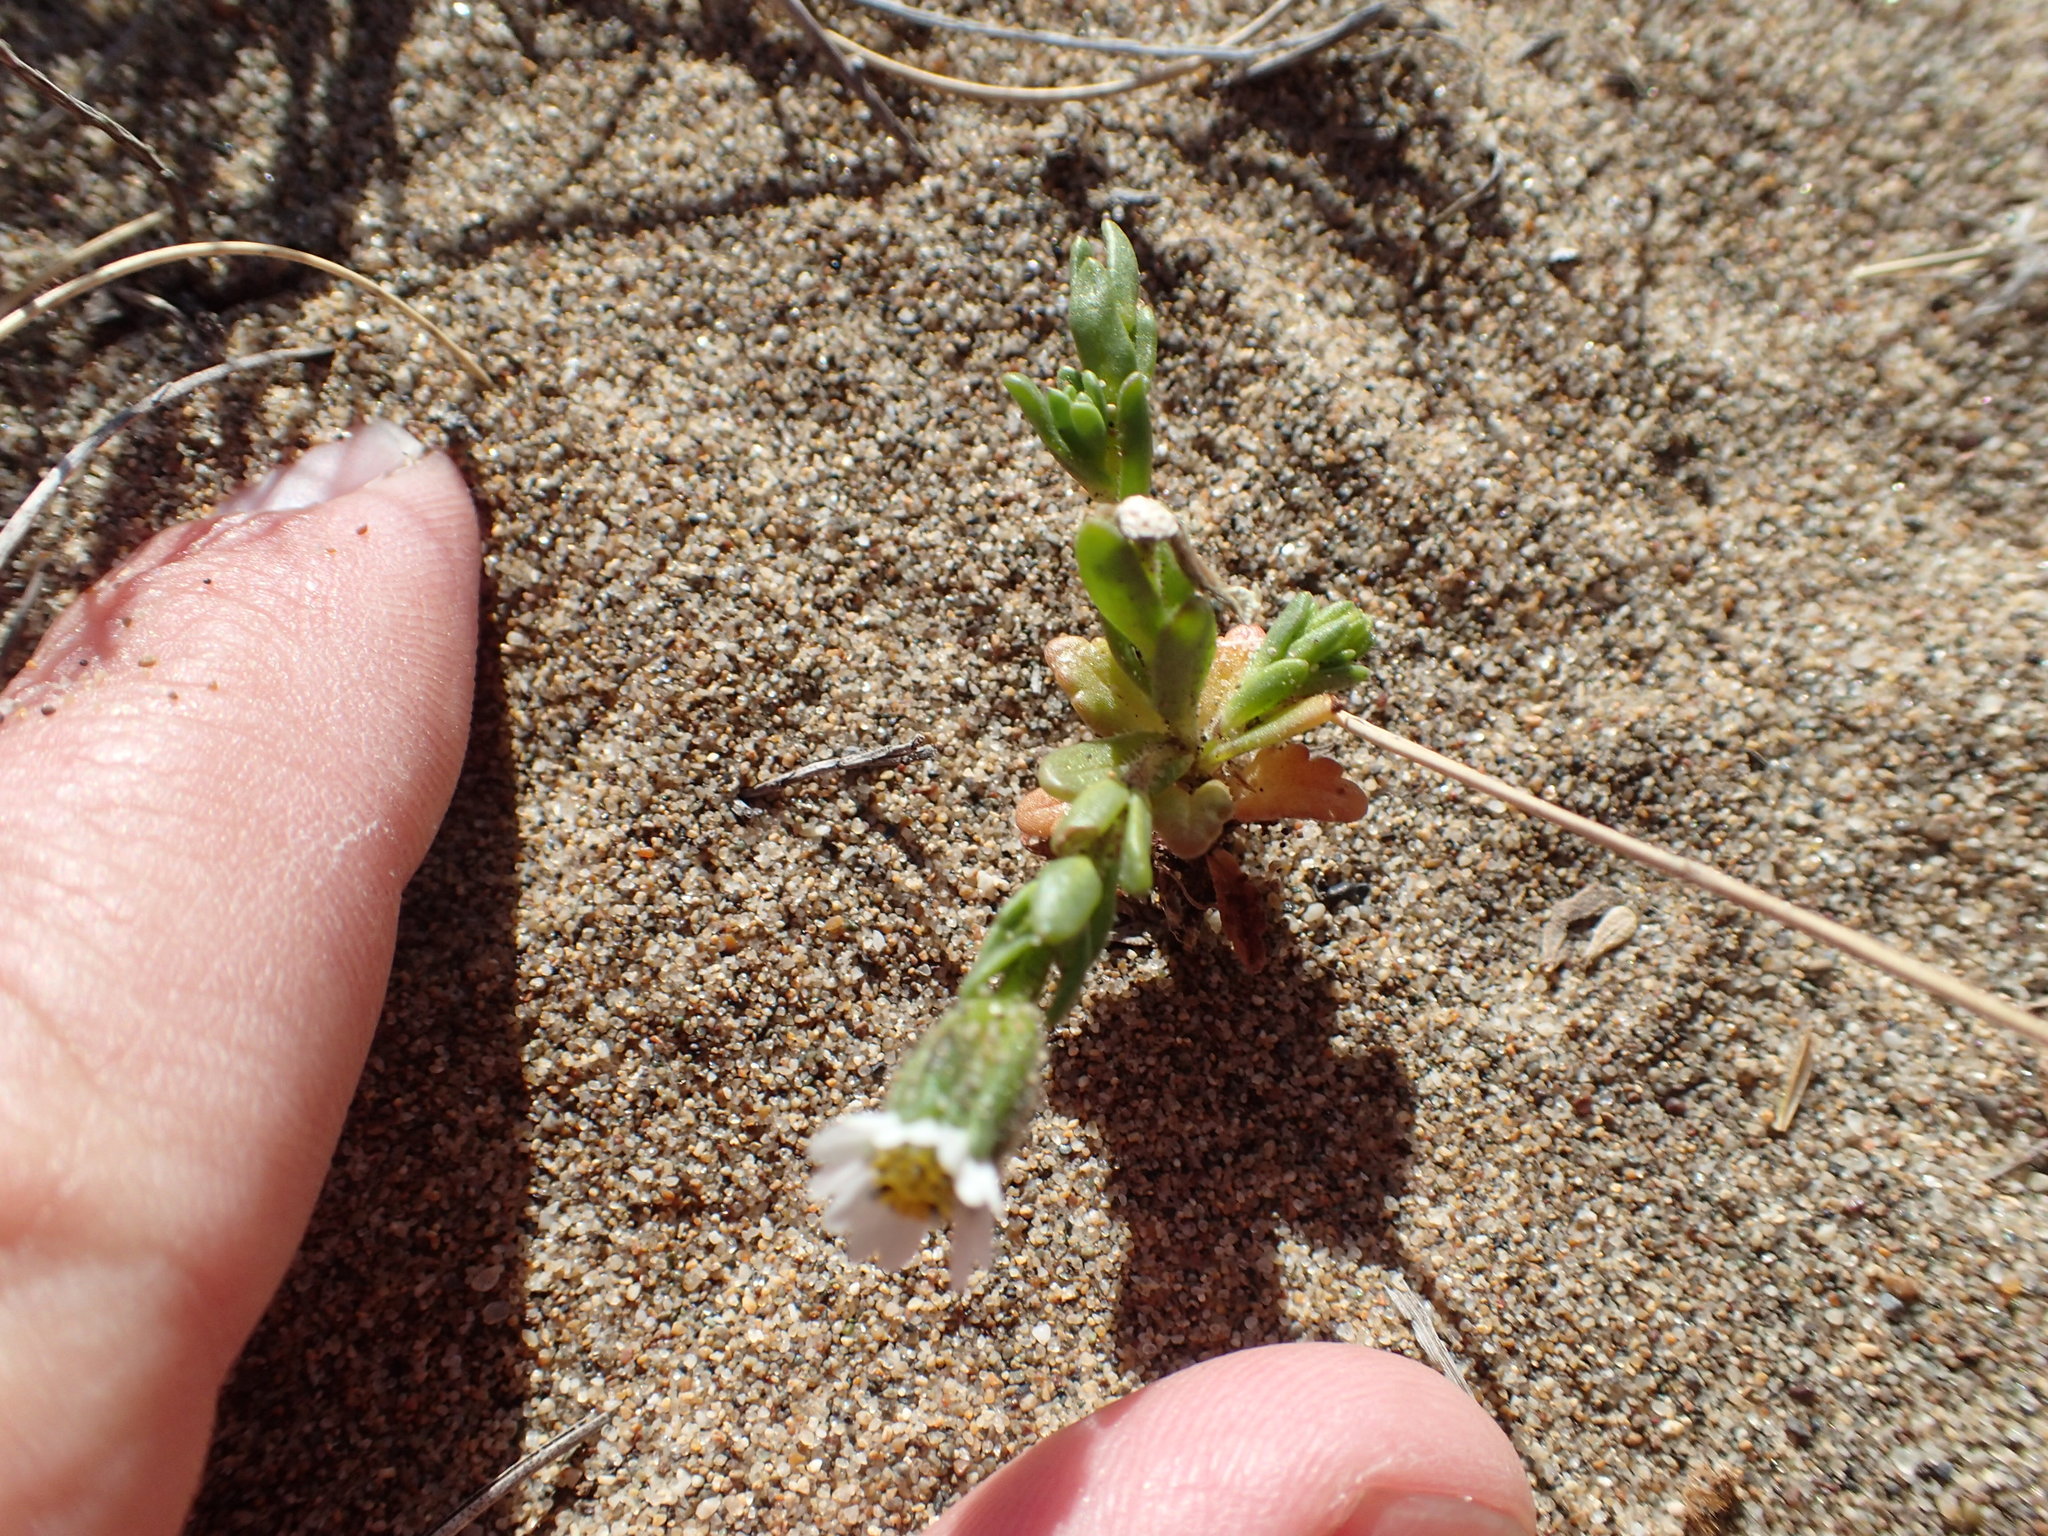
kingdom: Plantae
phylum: Tracheophyta
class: Magnoliopsida
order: Asterales
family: Asteraceae
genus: Layia
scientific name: Layia carnosa
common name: Beach layia
